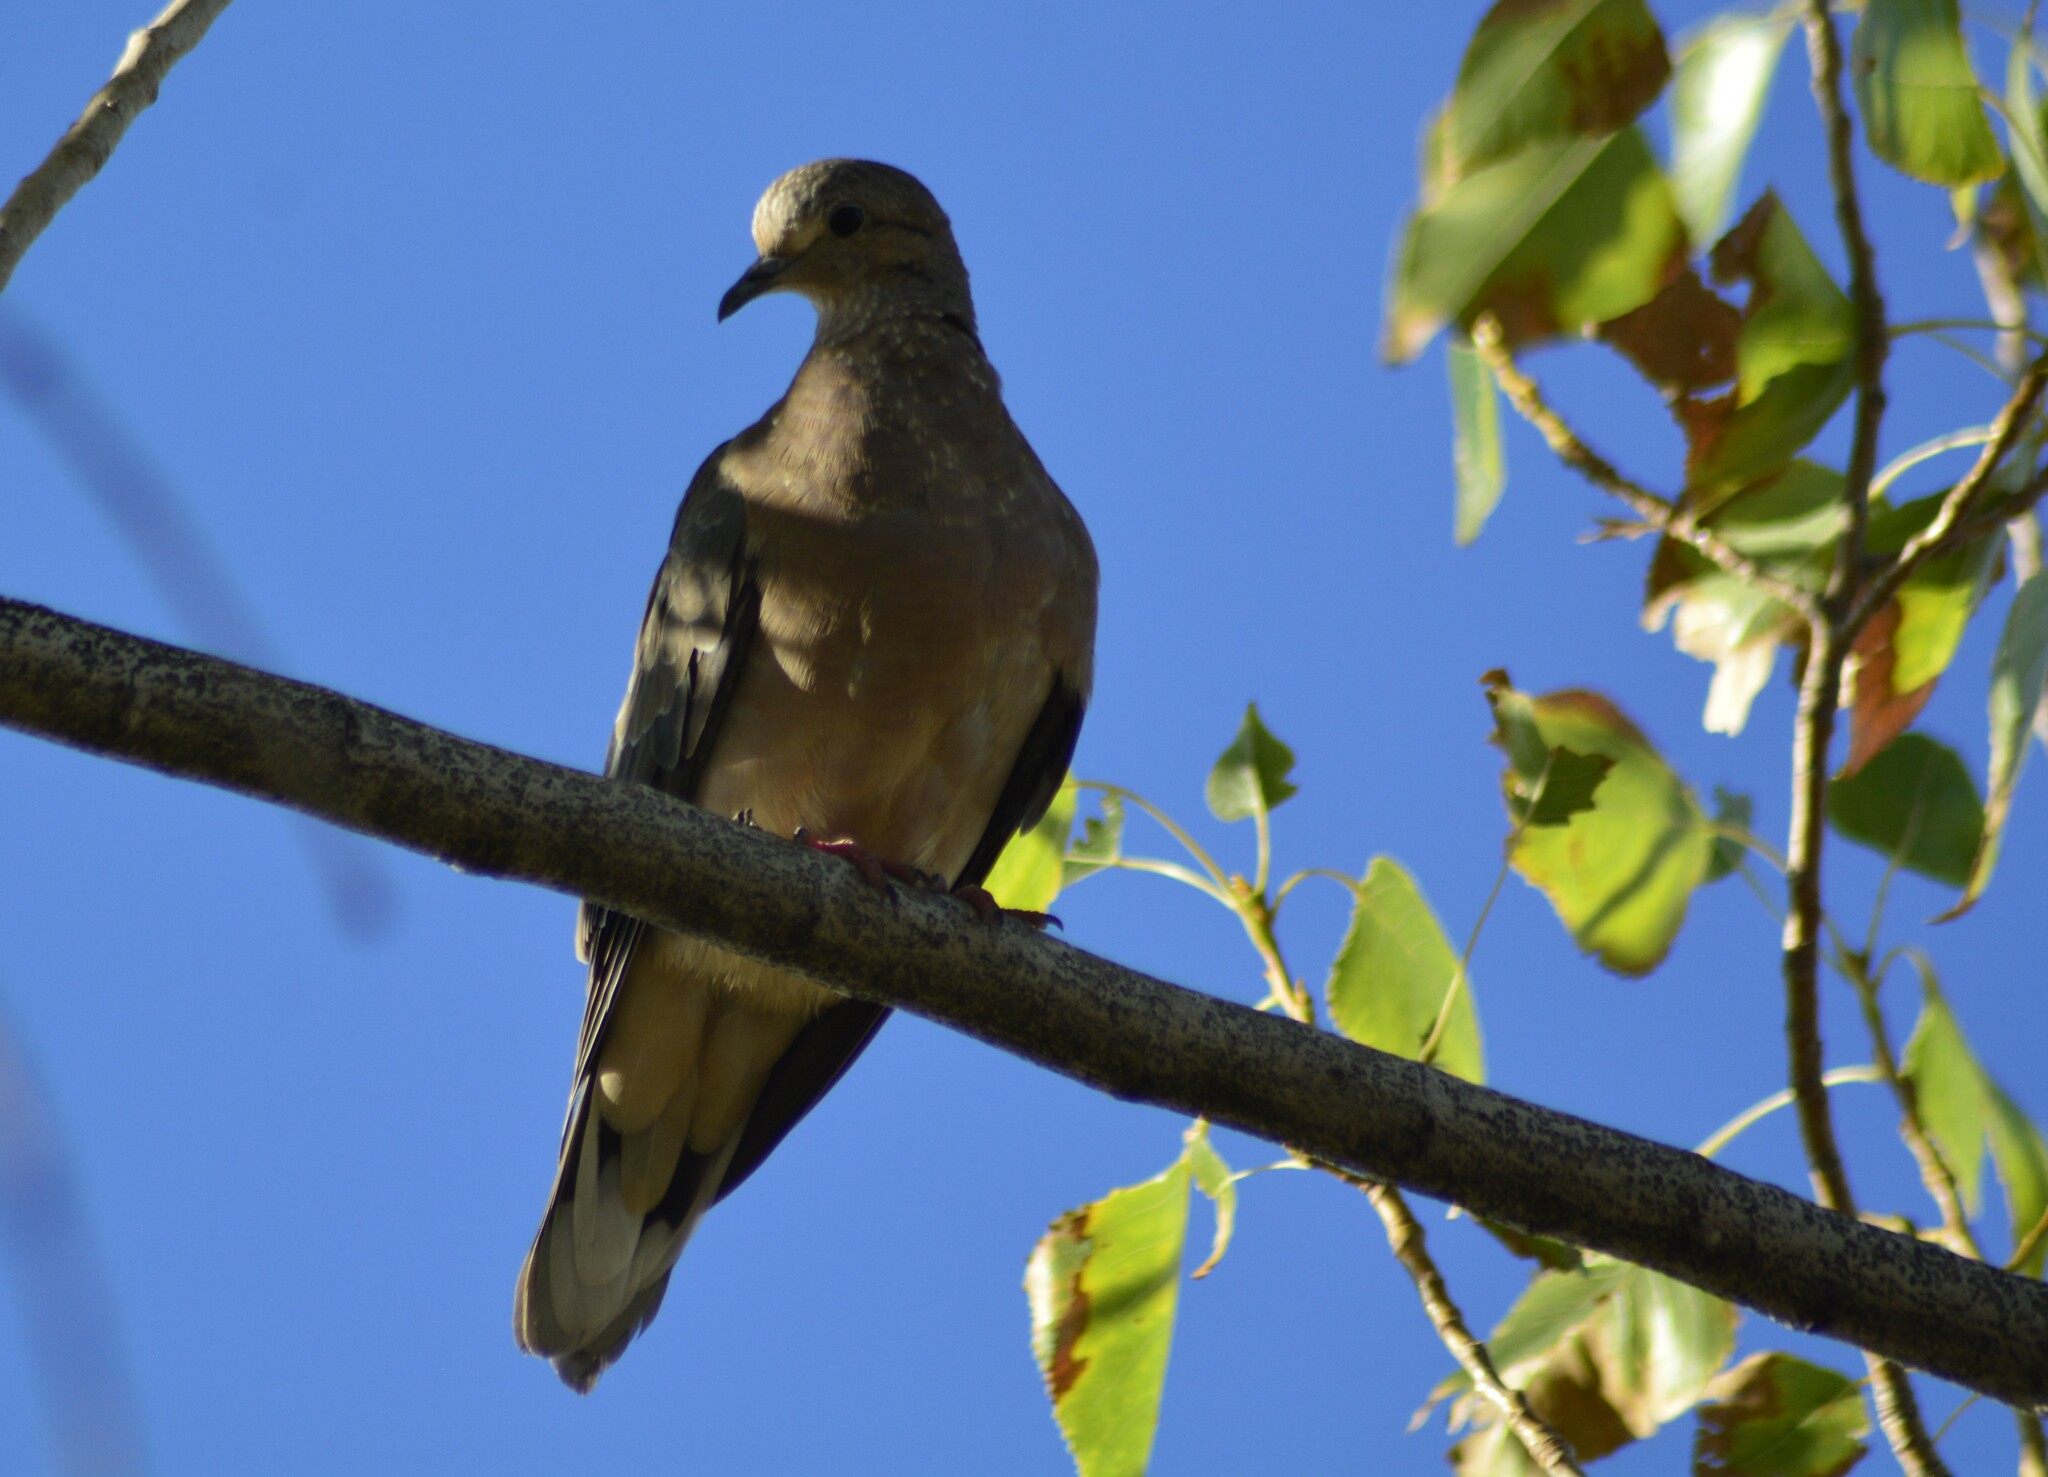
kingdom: Animalia
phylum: Chordata
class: Aves
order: Columbiformes
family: Columbidae
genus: Zenaida
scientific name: Zenaida auriculata
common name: Eared dove
